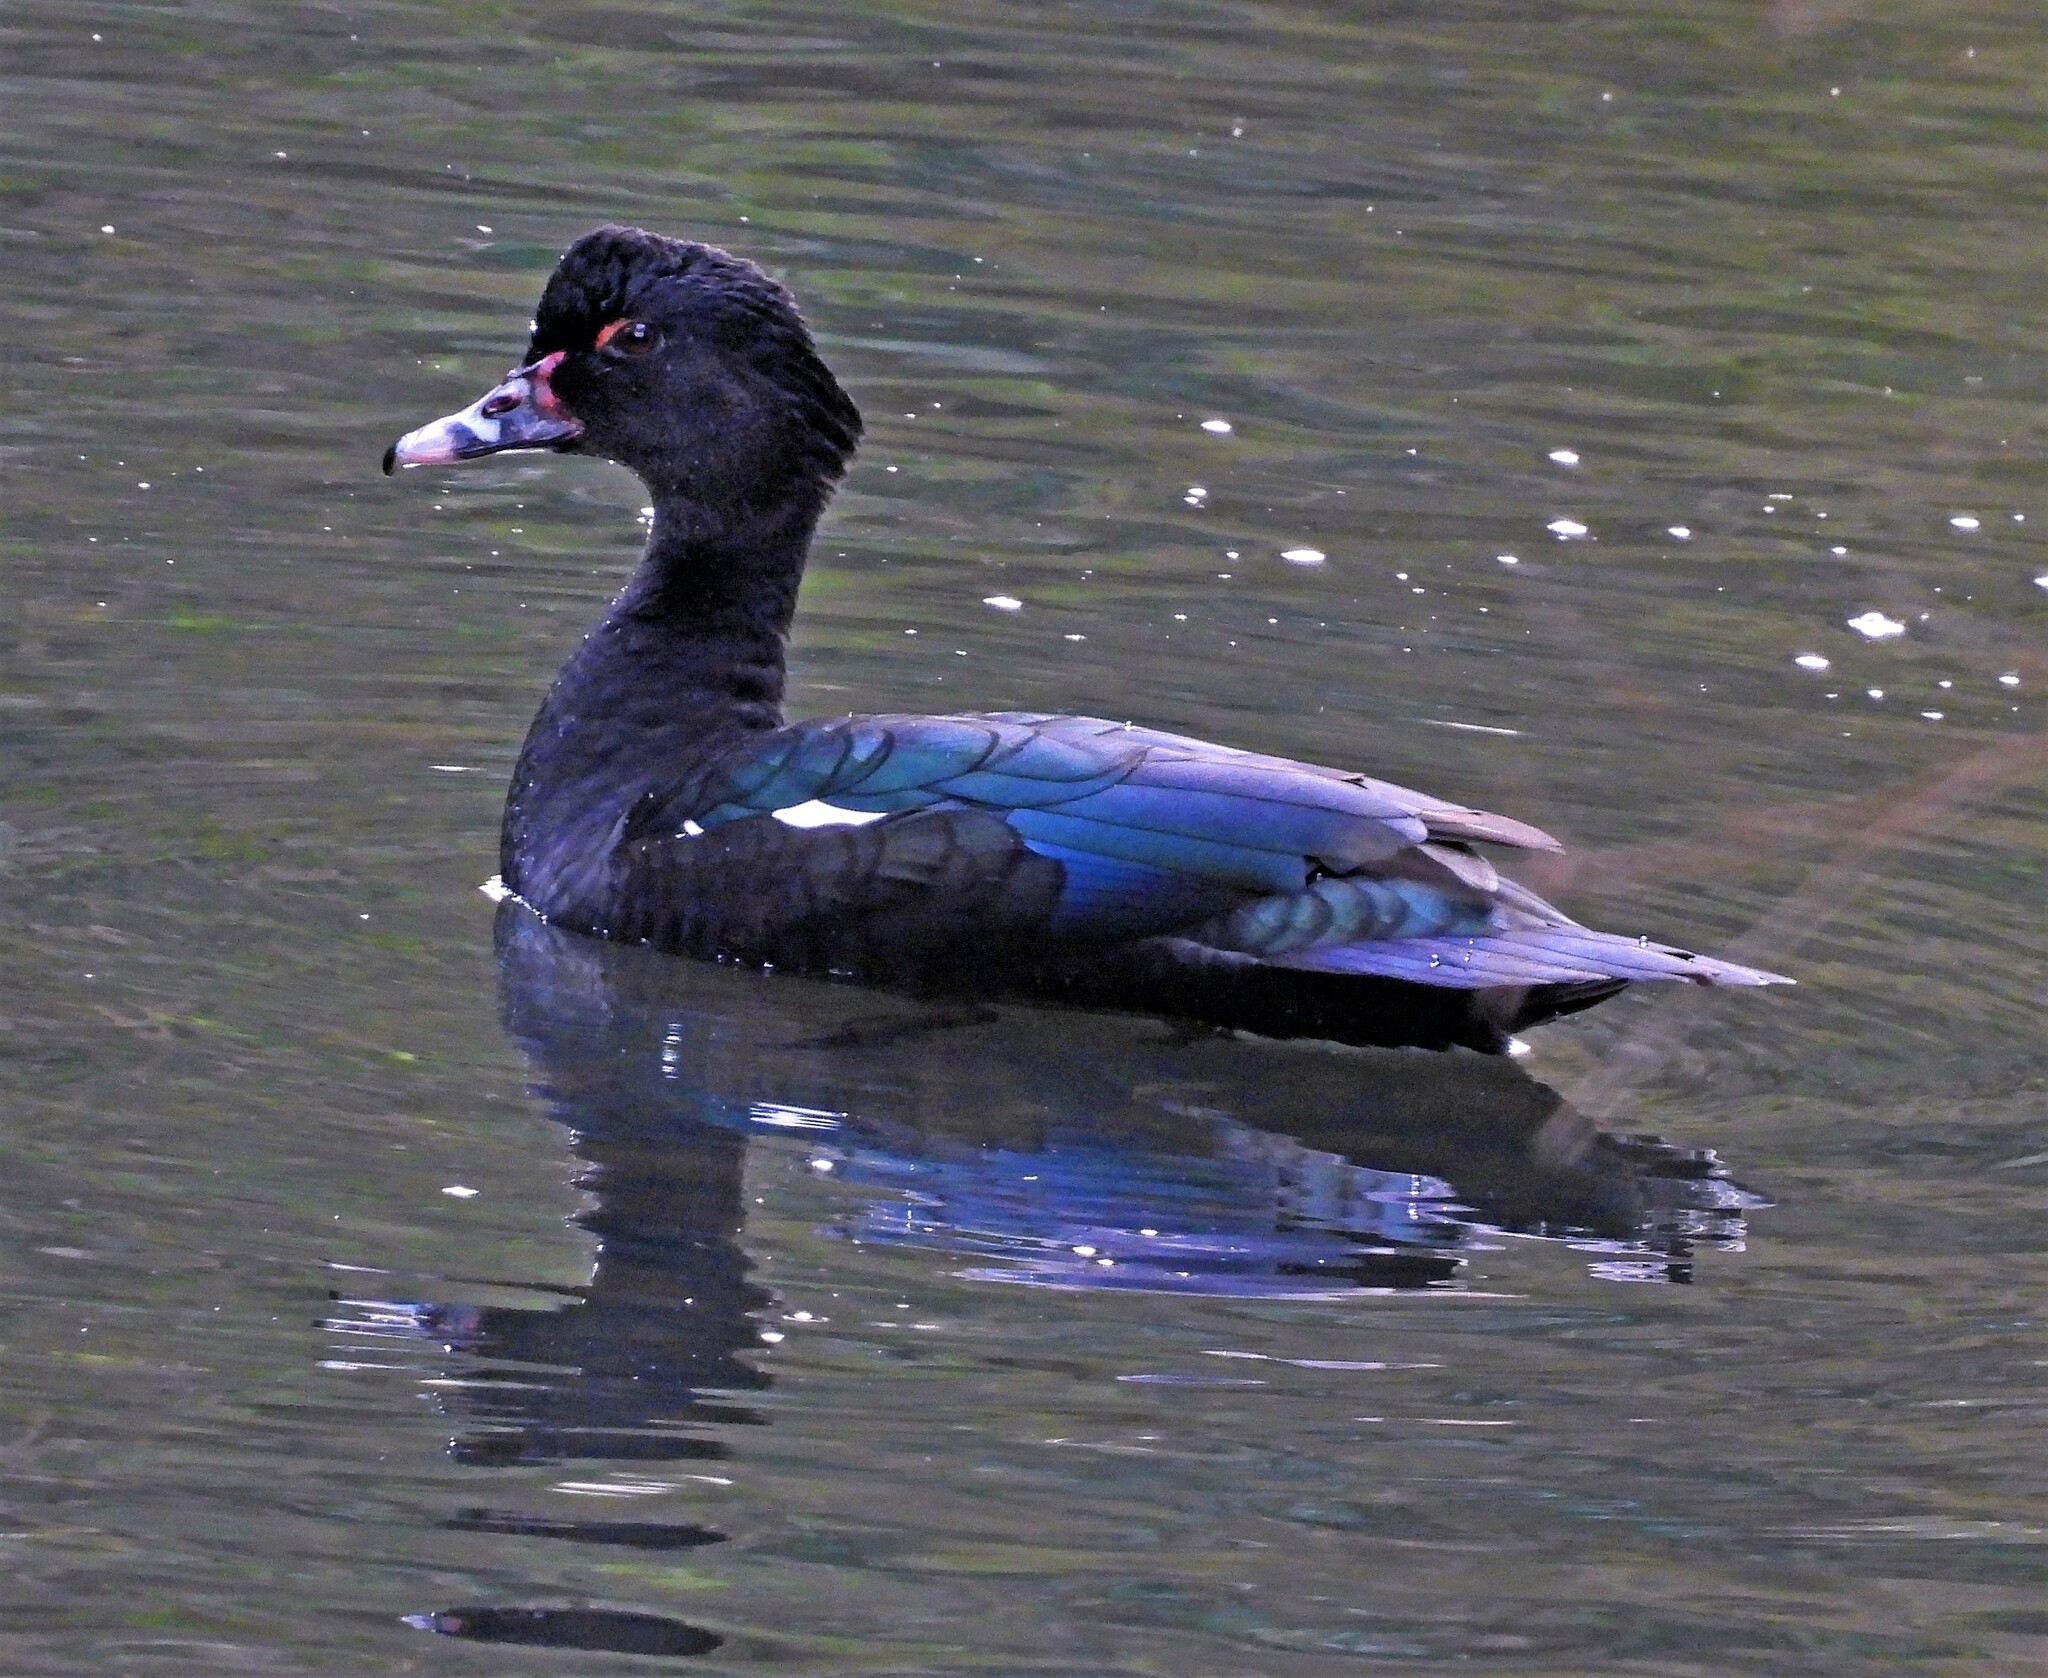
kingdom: Animalia
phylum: Chordata
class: Aves
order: Anseriformes
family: Anatidae
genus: Cairina
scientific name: Cairina moschata
